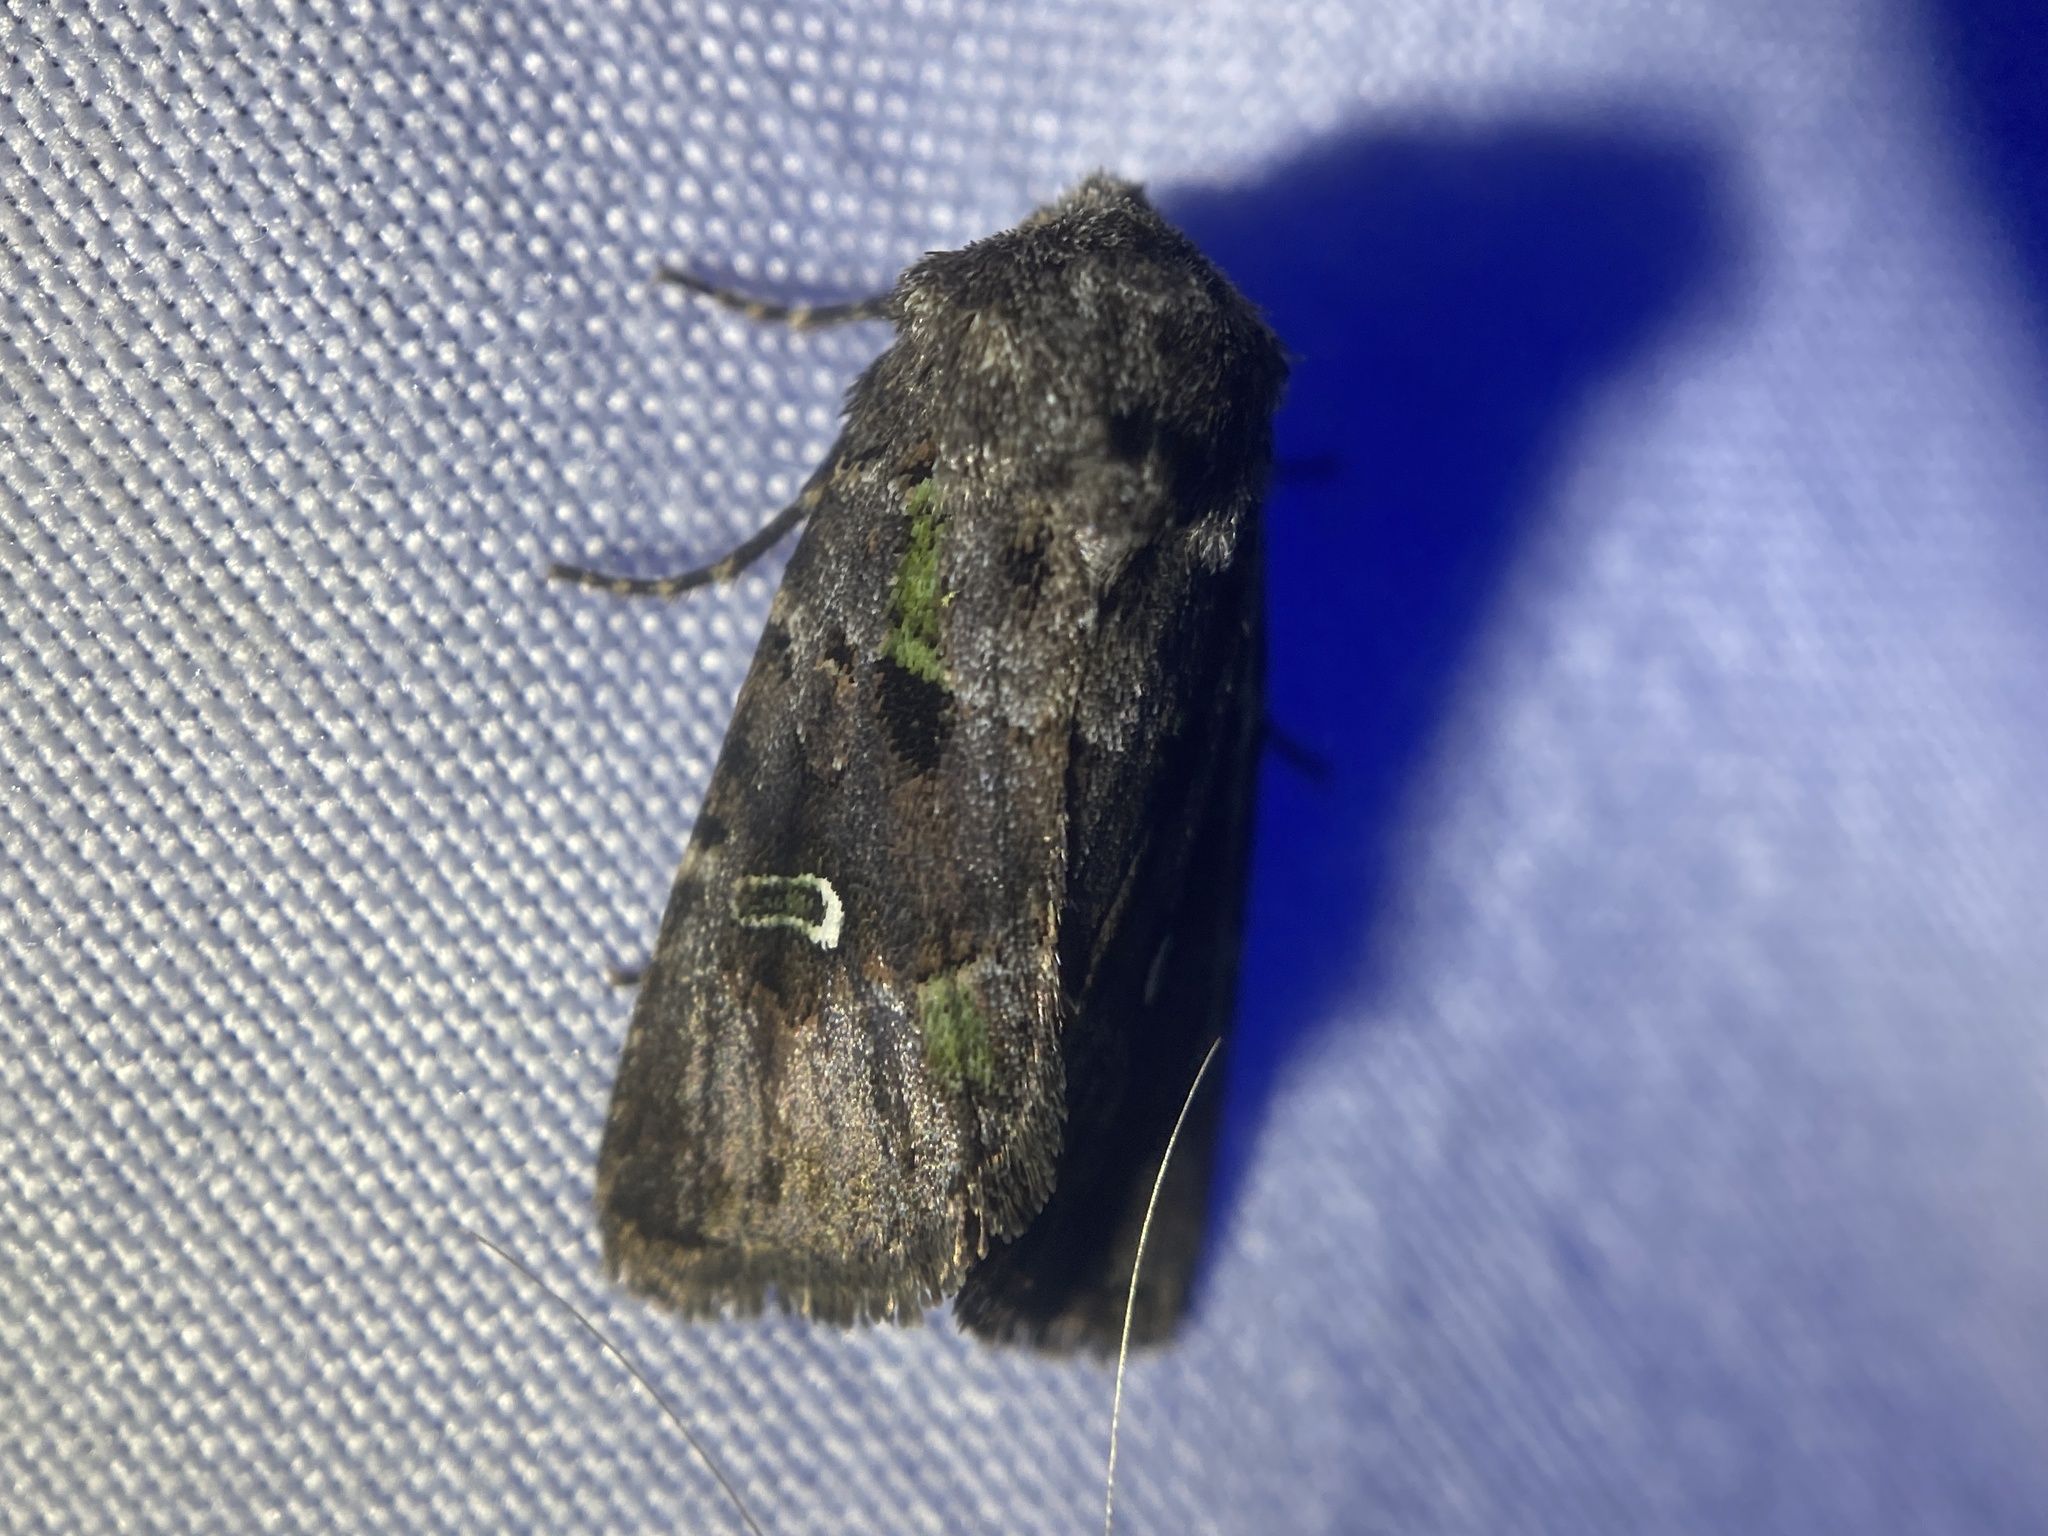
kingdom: Animalia
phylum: Arthropoda
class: Insecta
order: Lepidoptera
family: Noctuidae
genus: Lacinipolia
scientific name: Lacinipolia renigera
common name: Kidney-spotted minor
